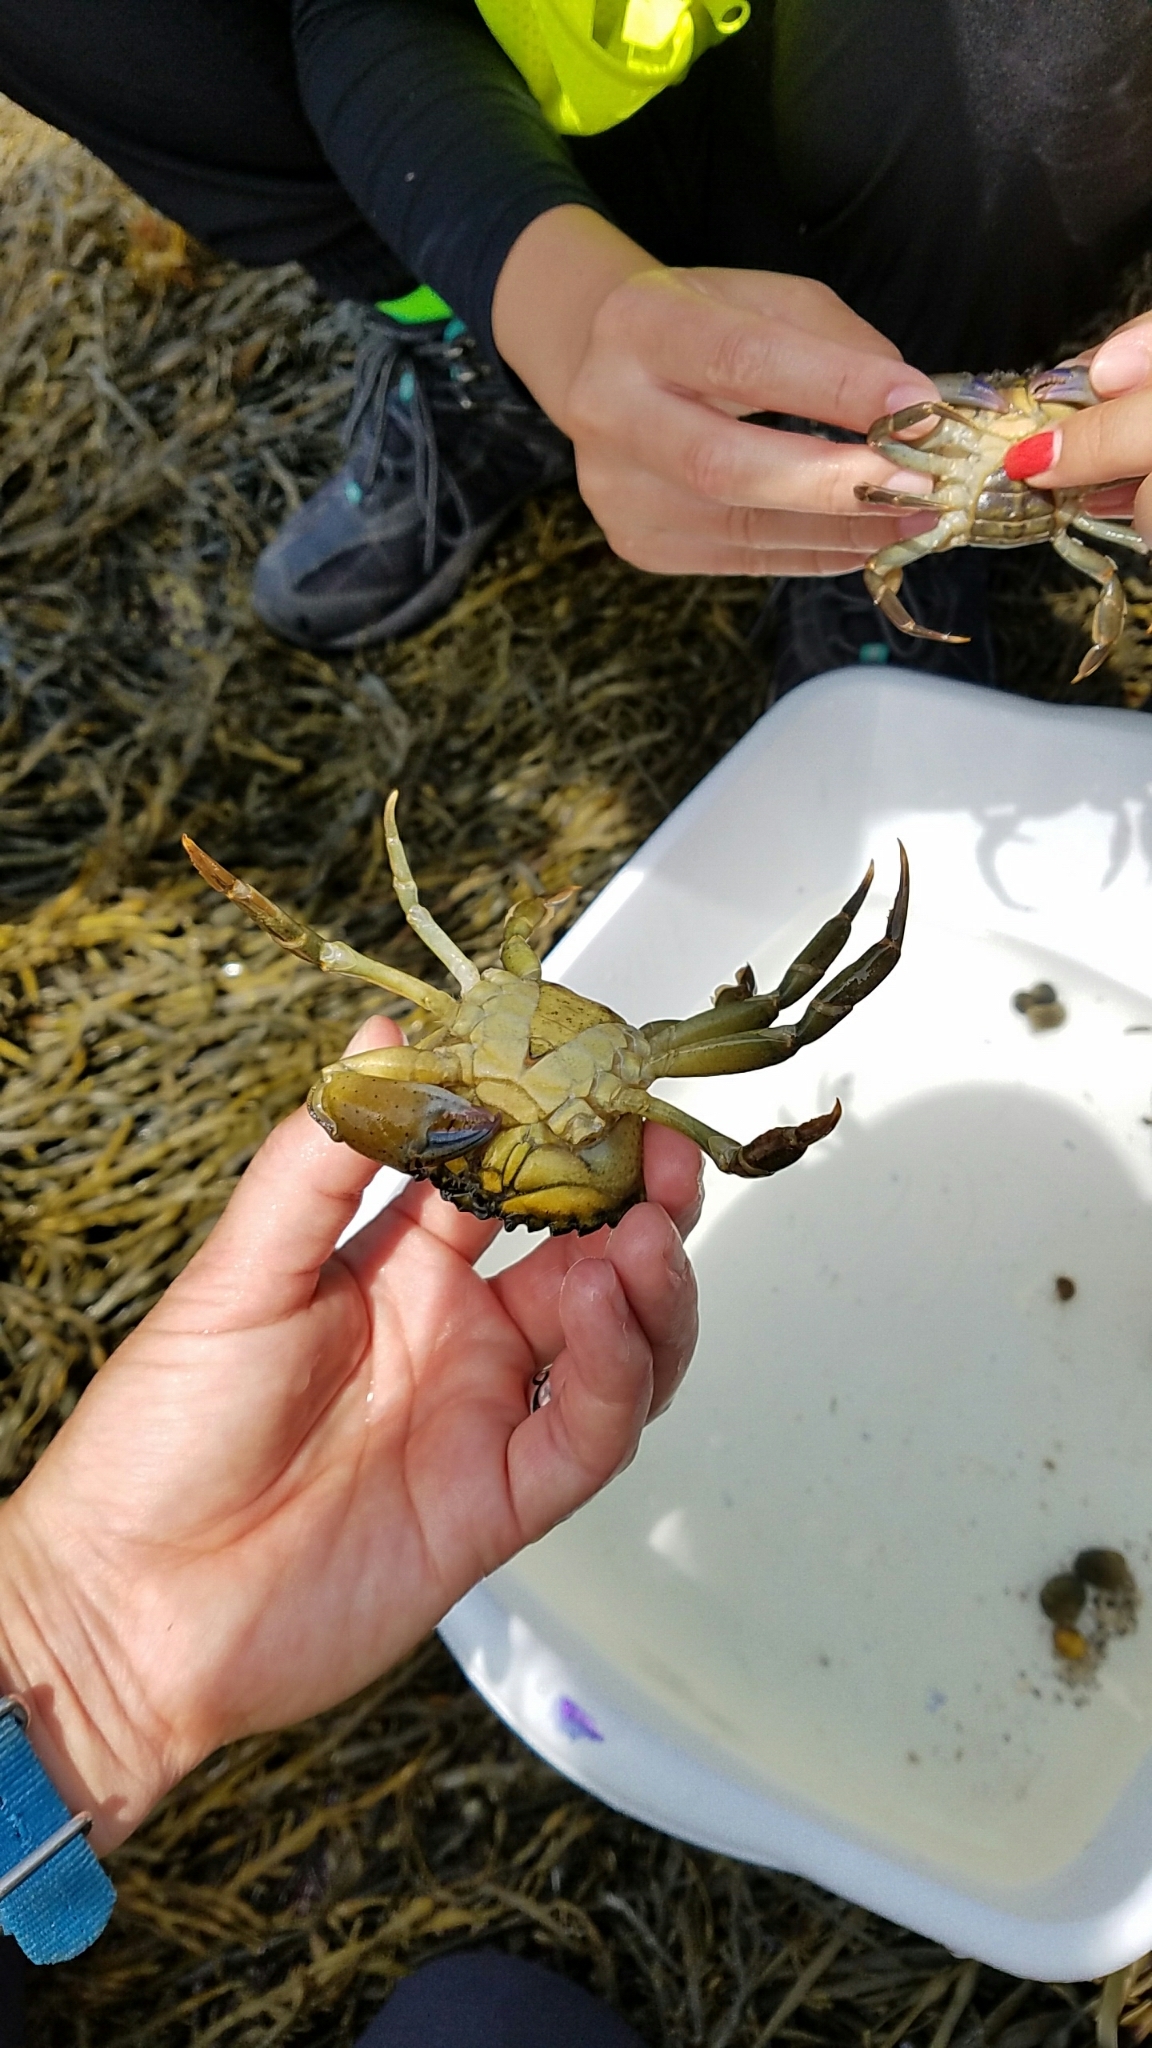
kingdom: Animalia
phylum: Arthropoda
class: Malacostraca
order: Decapoda
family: Carcinidae
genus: Carcinus
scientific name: Carcinus maenas
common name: European green crab
